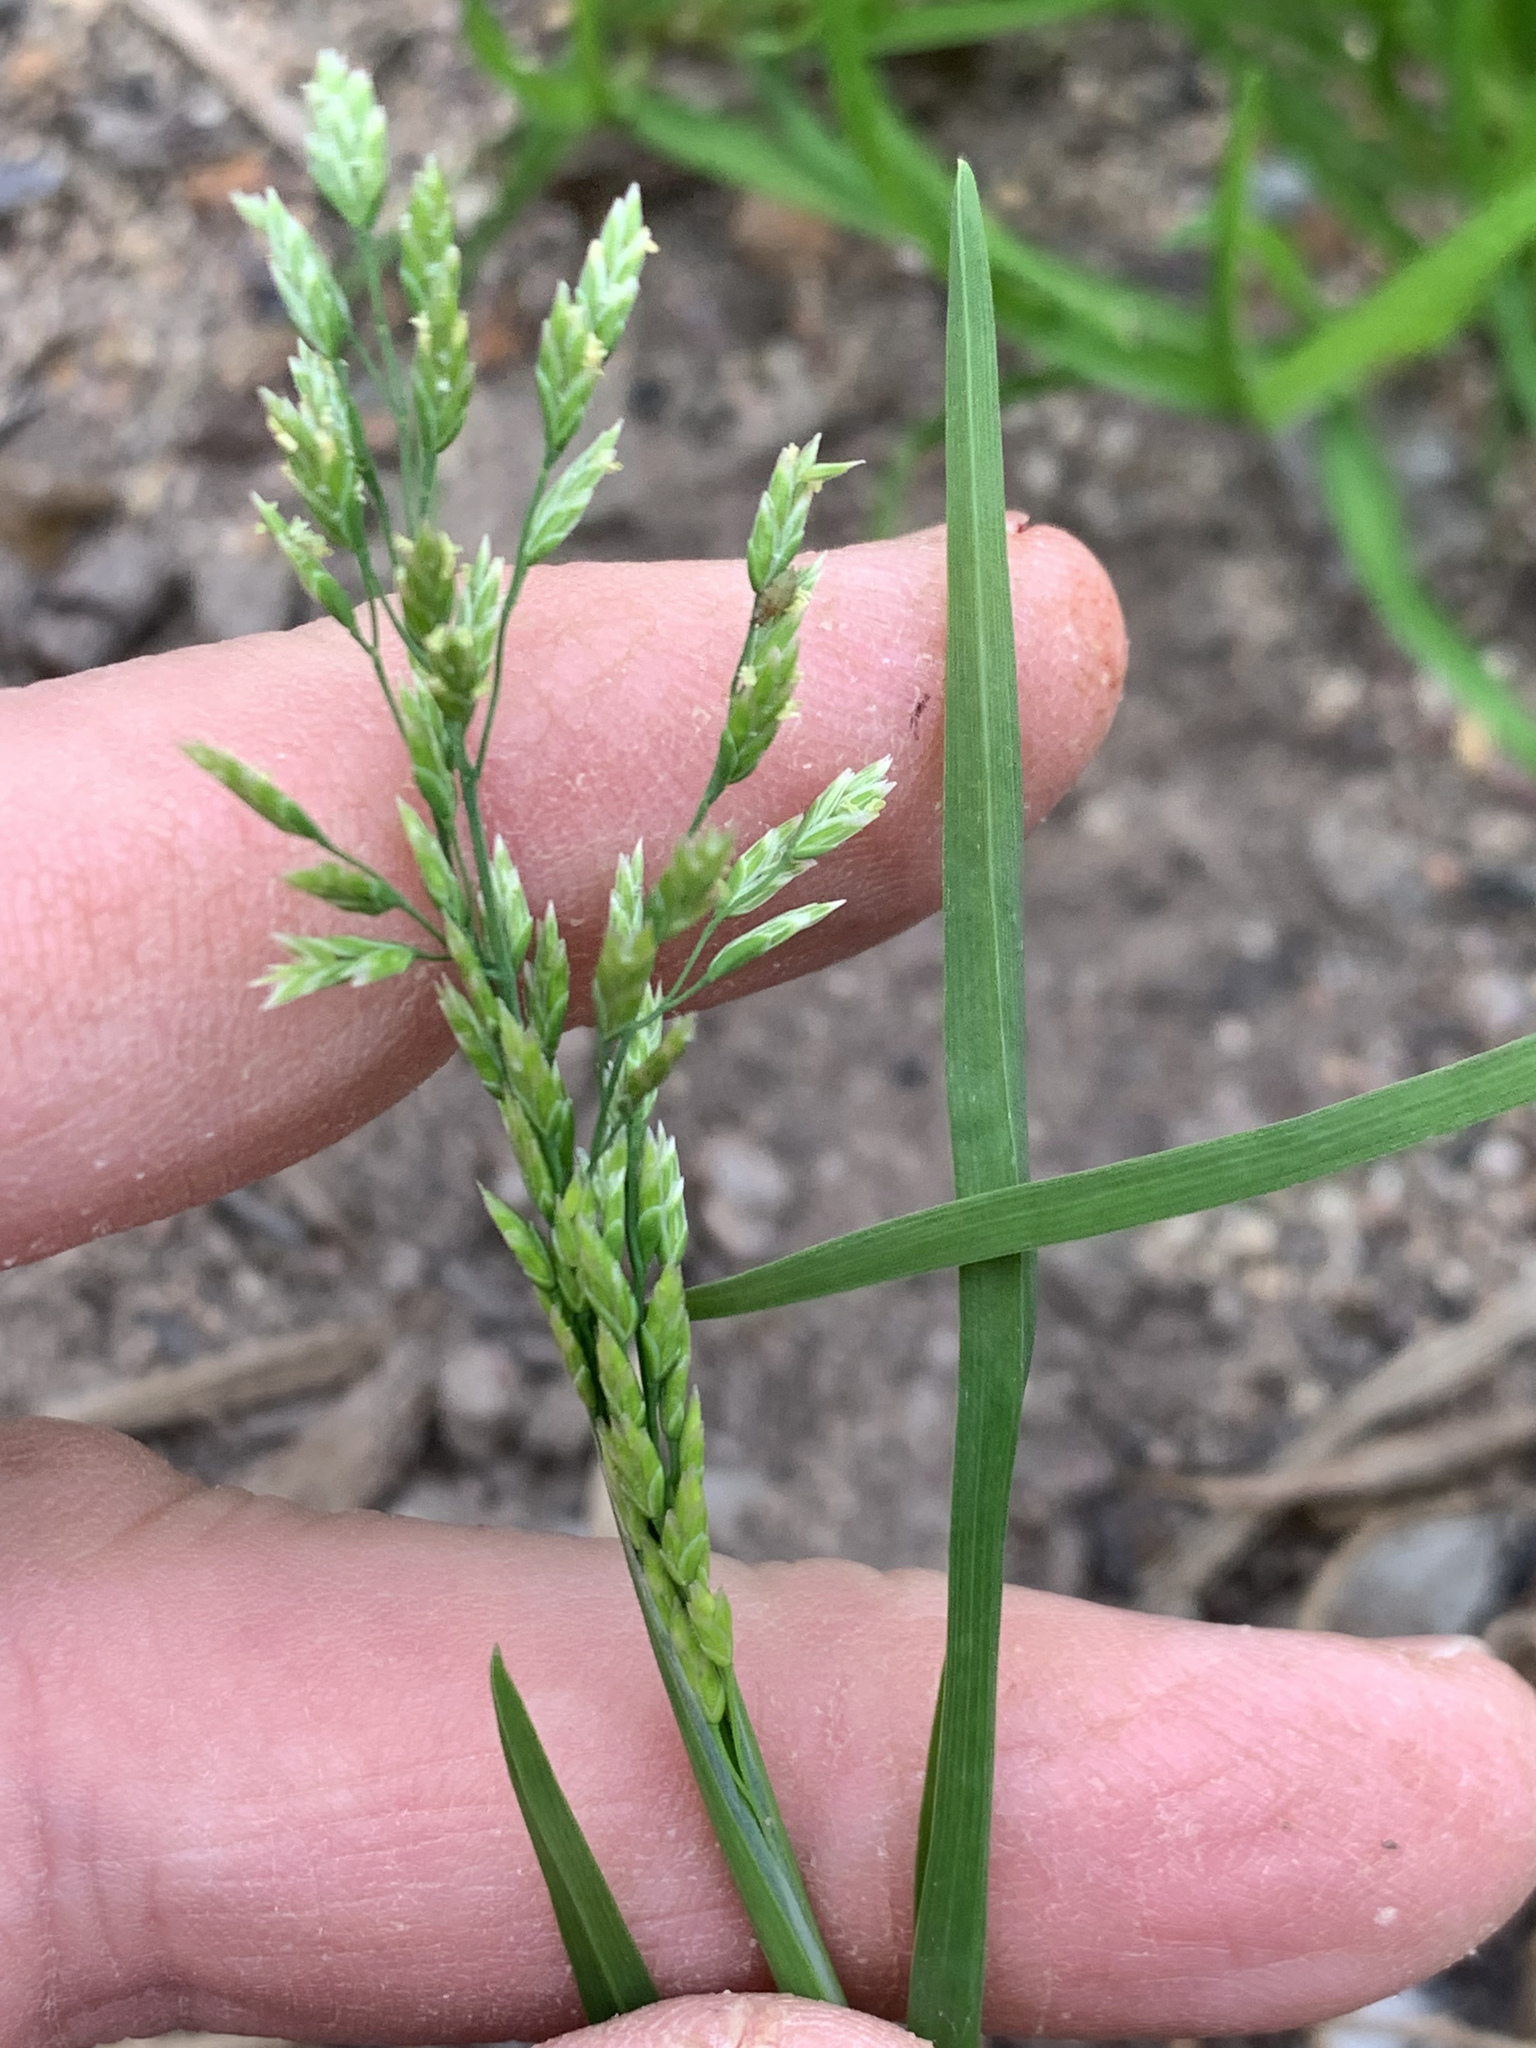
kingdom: Plantae
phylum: Tracheophyta
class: Liliopsida
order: Poales
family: Poaceae
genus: Poa
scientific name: Poa annua
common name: Annual bluegrass
